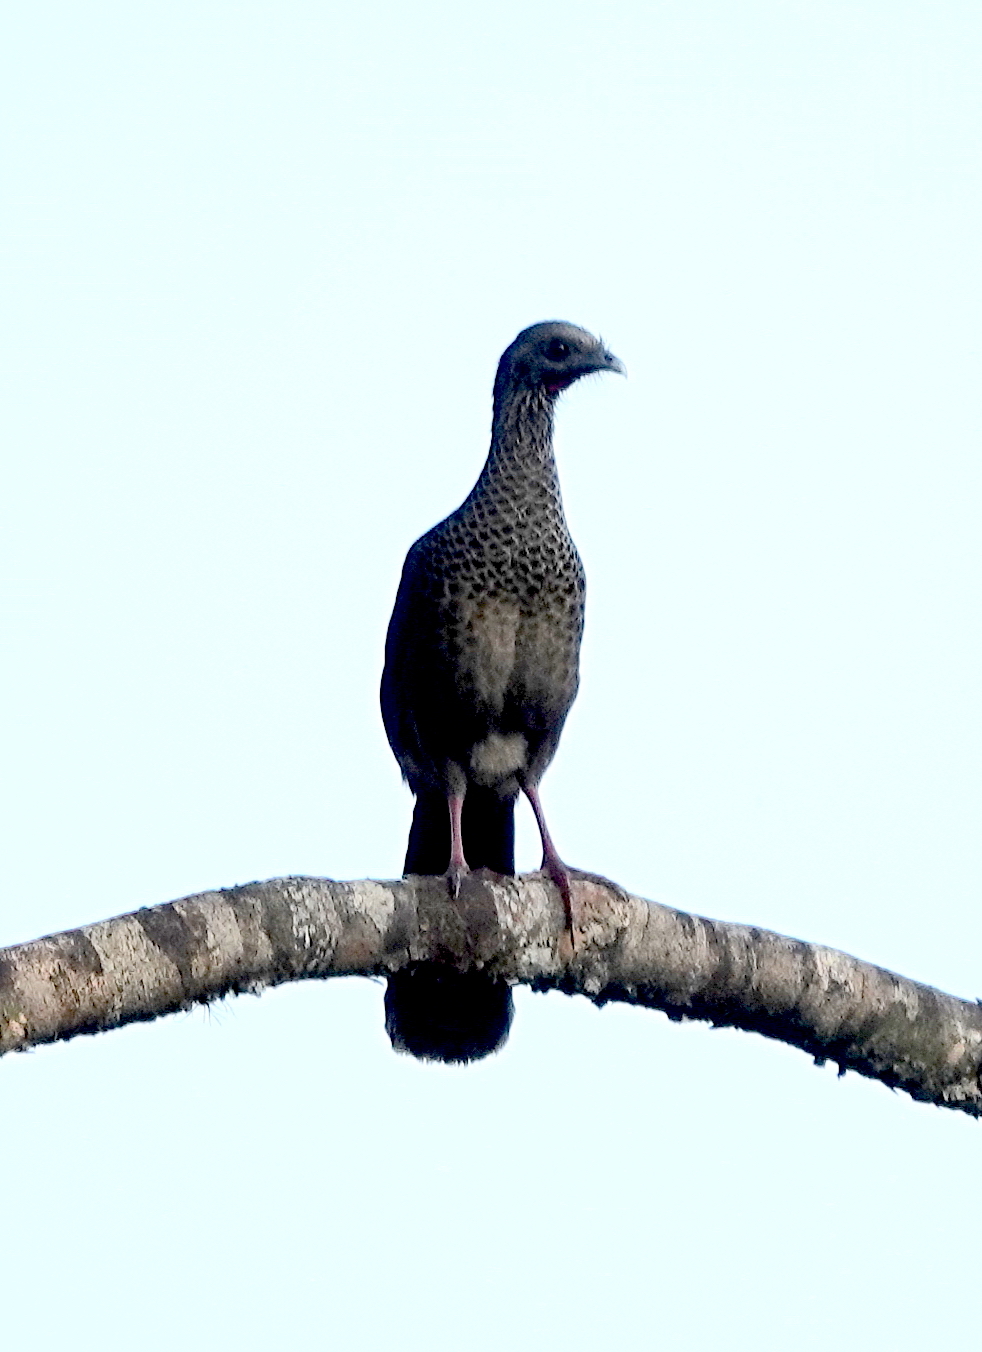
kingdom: Animalia
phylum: Chordata
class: Aves
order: Galliformes
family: Cracidae
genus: Ortalis
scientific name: Ortalis columbiana
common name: Colombian chachalaca
